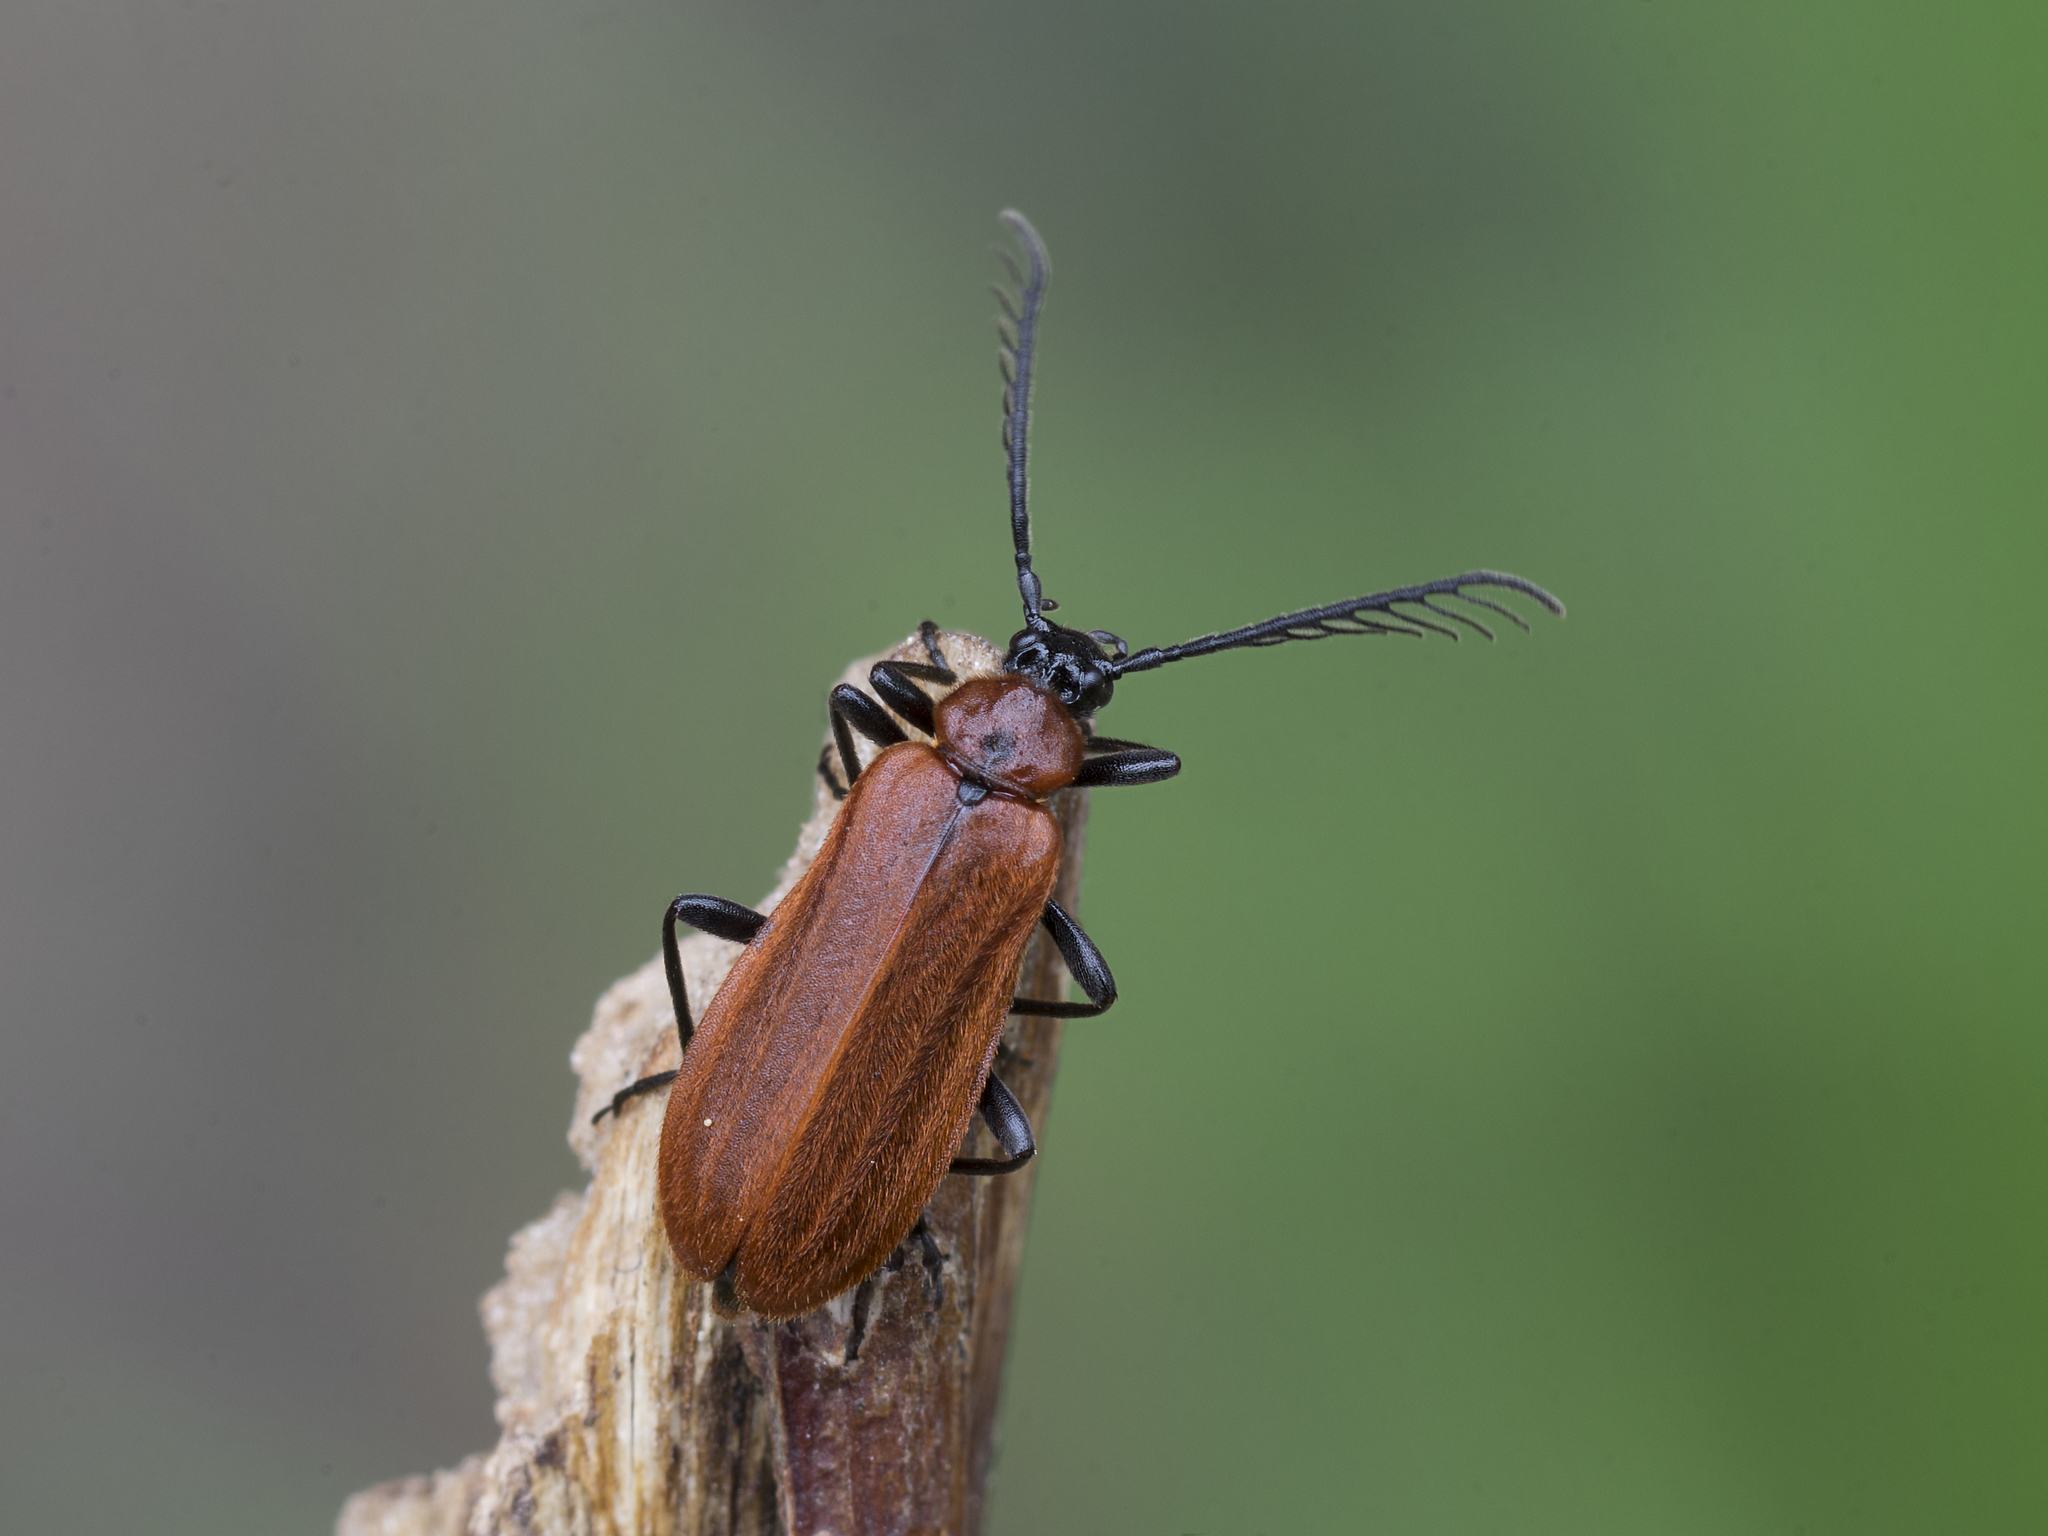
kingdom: Animalia
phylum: Arthropoda
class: Insecta
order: Coleoptera
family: Pyrochroidae
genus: Schizotus
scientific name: Schizotus pectinicornis
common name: Scarce cardinal beetle
